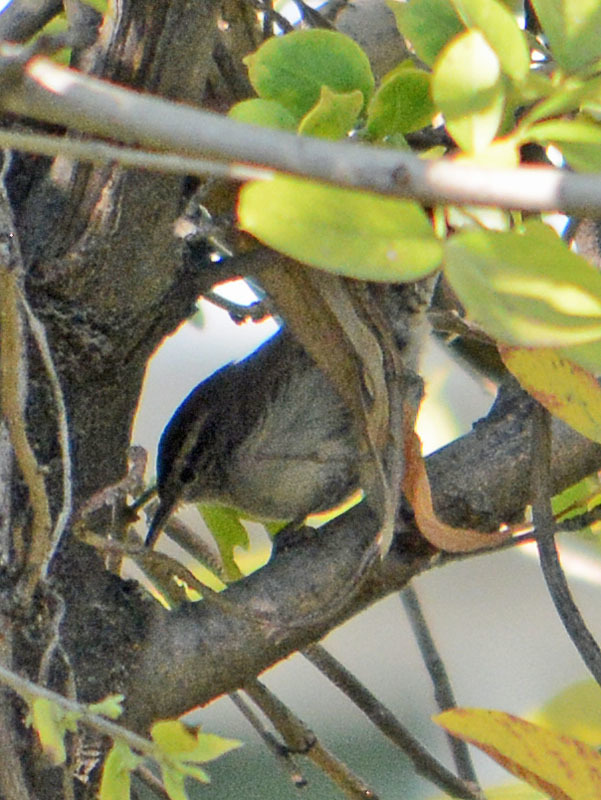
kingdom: Animalia
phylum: Chordata
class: Aves
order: Passeriformes
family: Troglodytidae
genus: Thryomanes
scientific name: Thryomanes bewickii
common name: Bewick's wren
